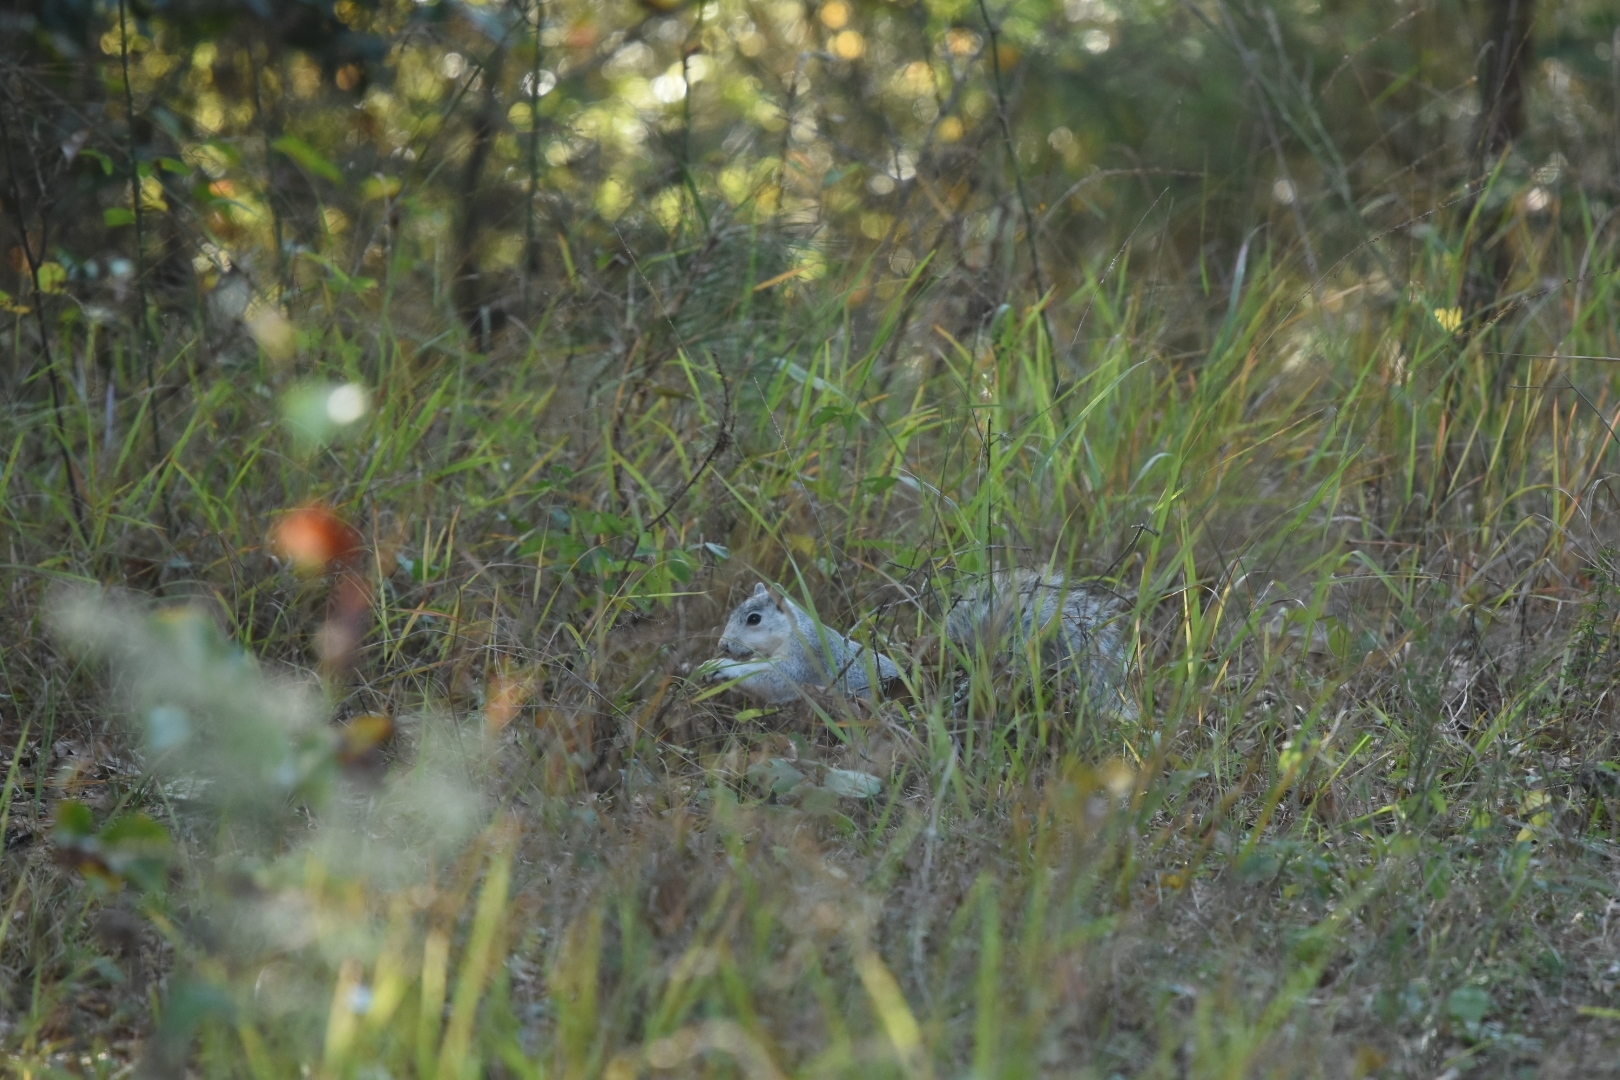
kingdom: Animalia
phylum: Chordata
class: Mammalia
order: Rodentia
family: Sciuridae
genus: Sciurus
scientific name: Sciurus niger
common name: Fox squirrel
